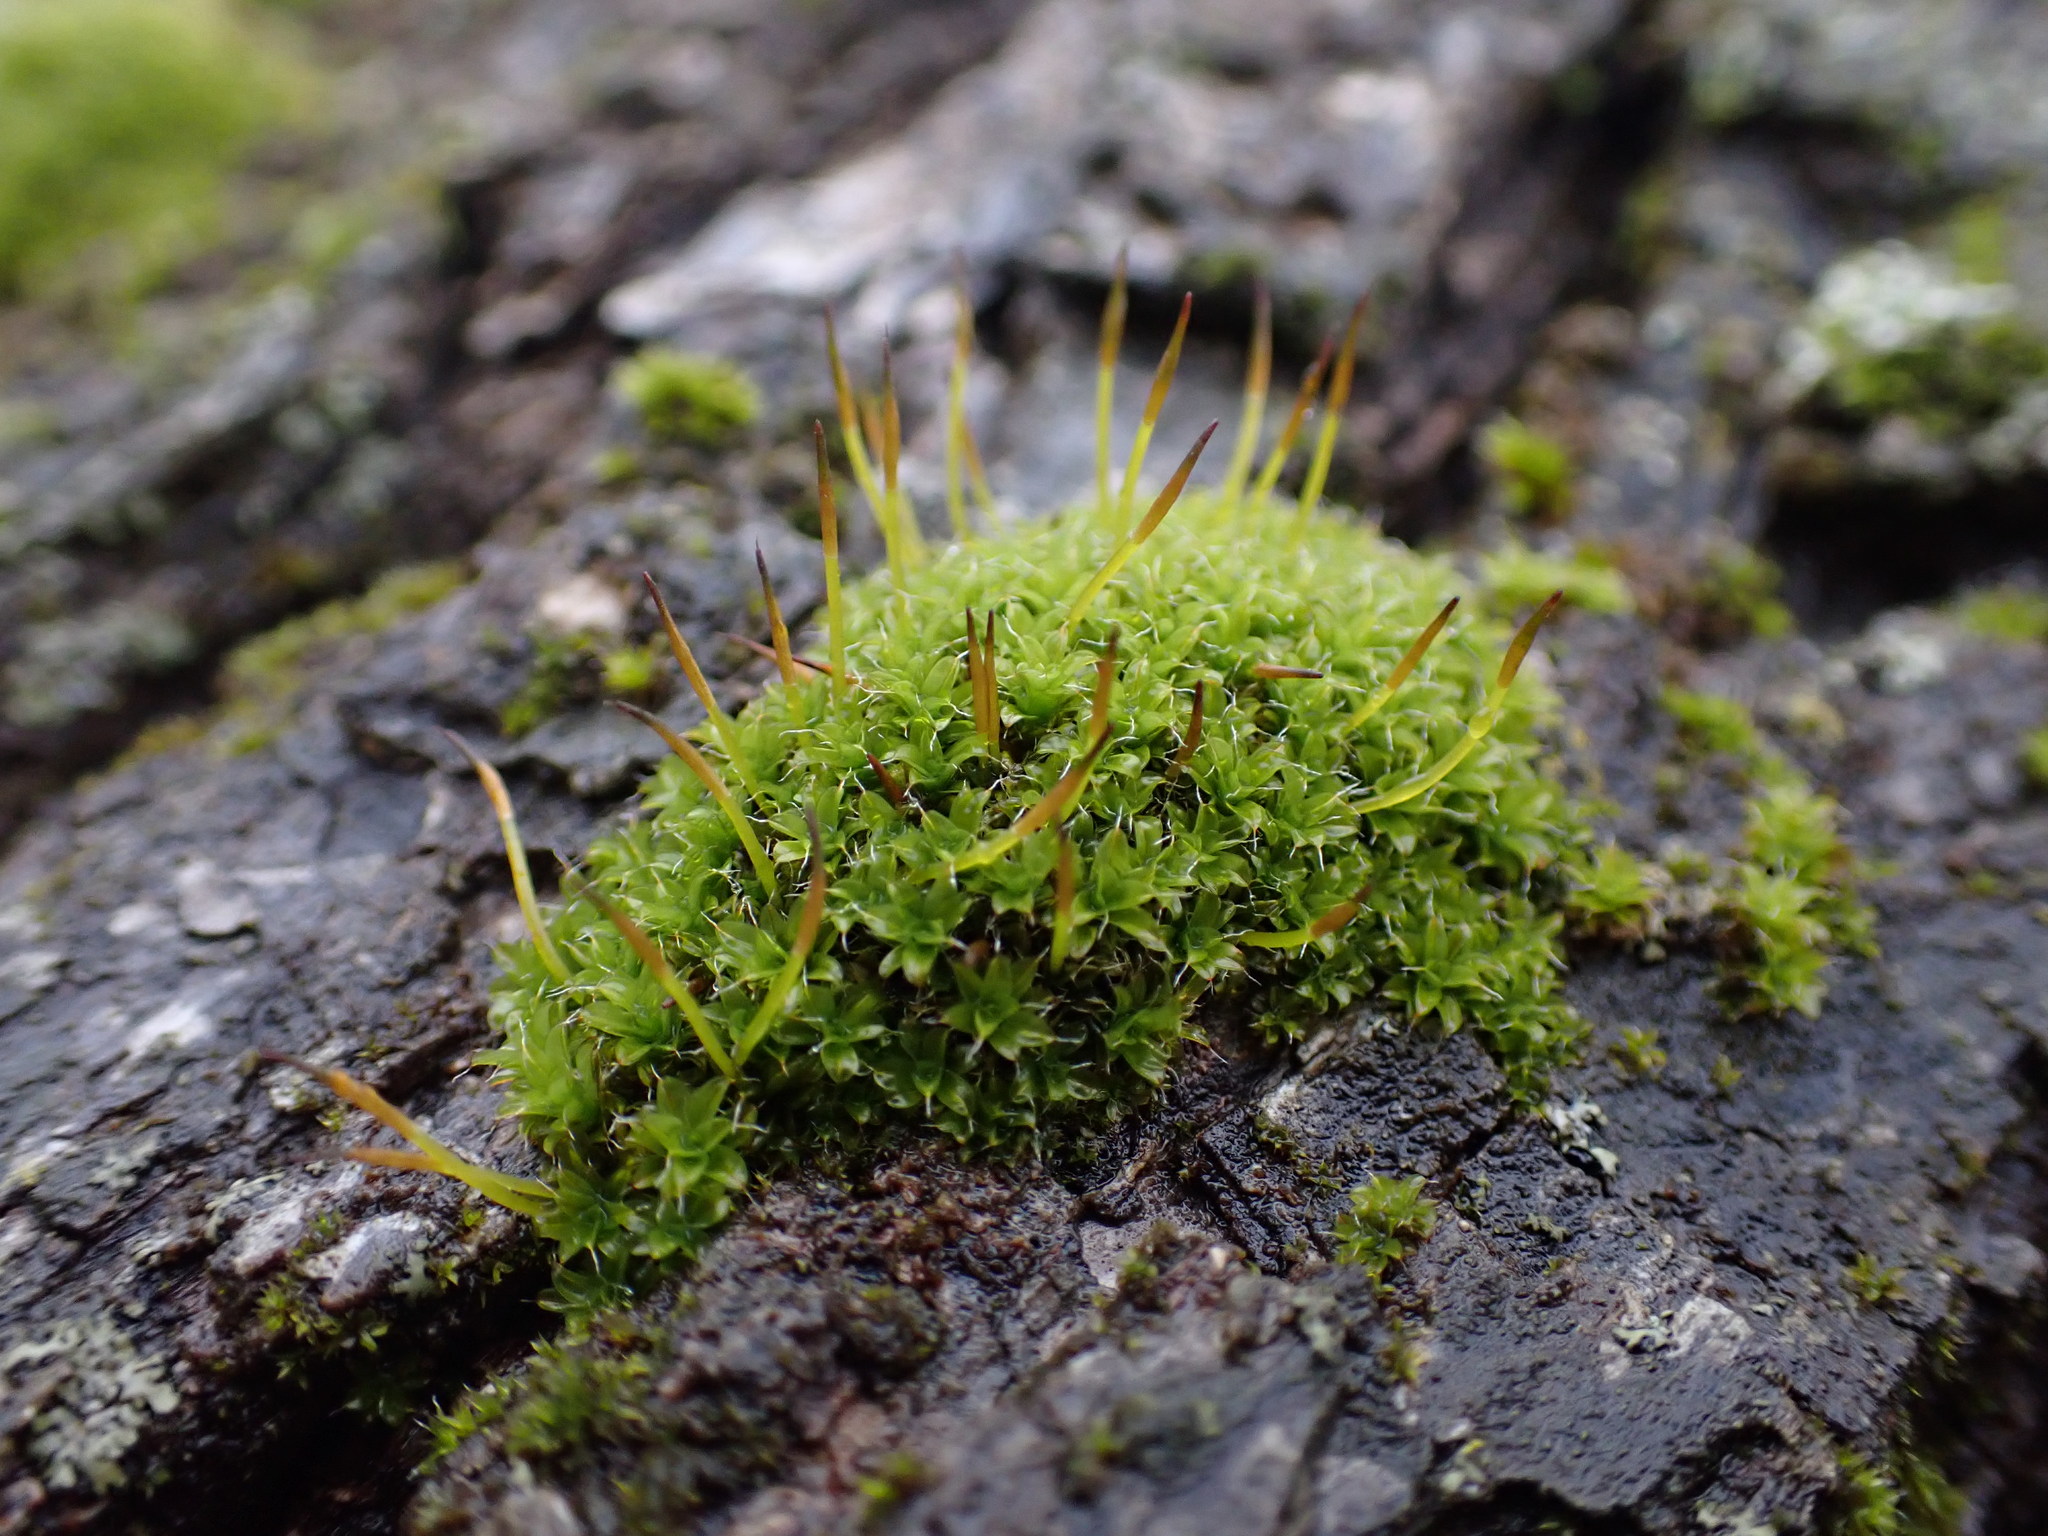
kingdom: Plantae
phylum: Bryophyta
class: Bryopsida
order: Pottiales
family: Pottiaceae
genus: Tortula
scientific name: Tortula muralis
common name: Wall screw-moss
